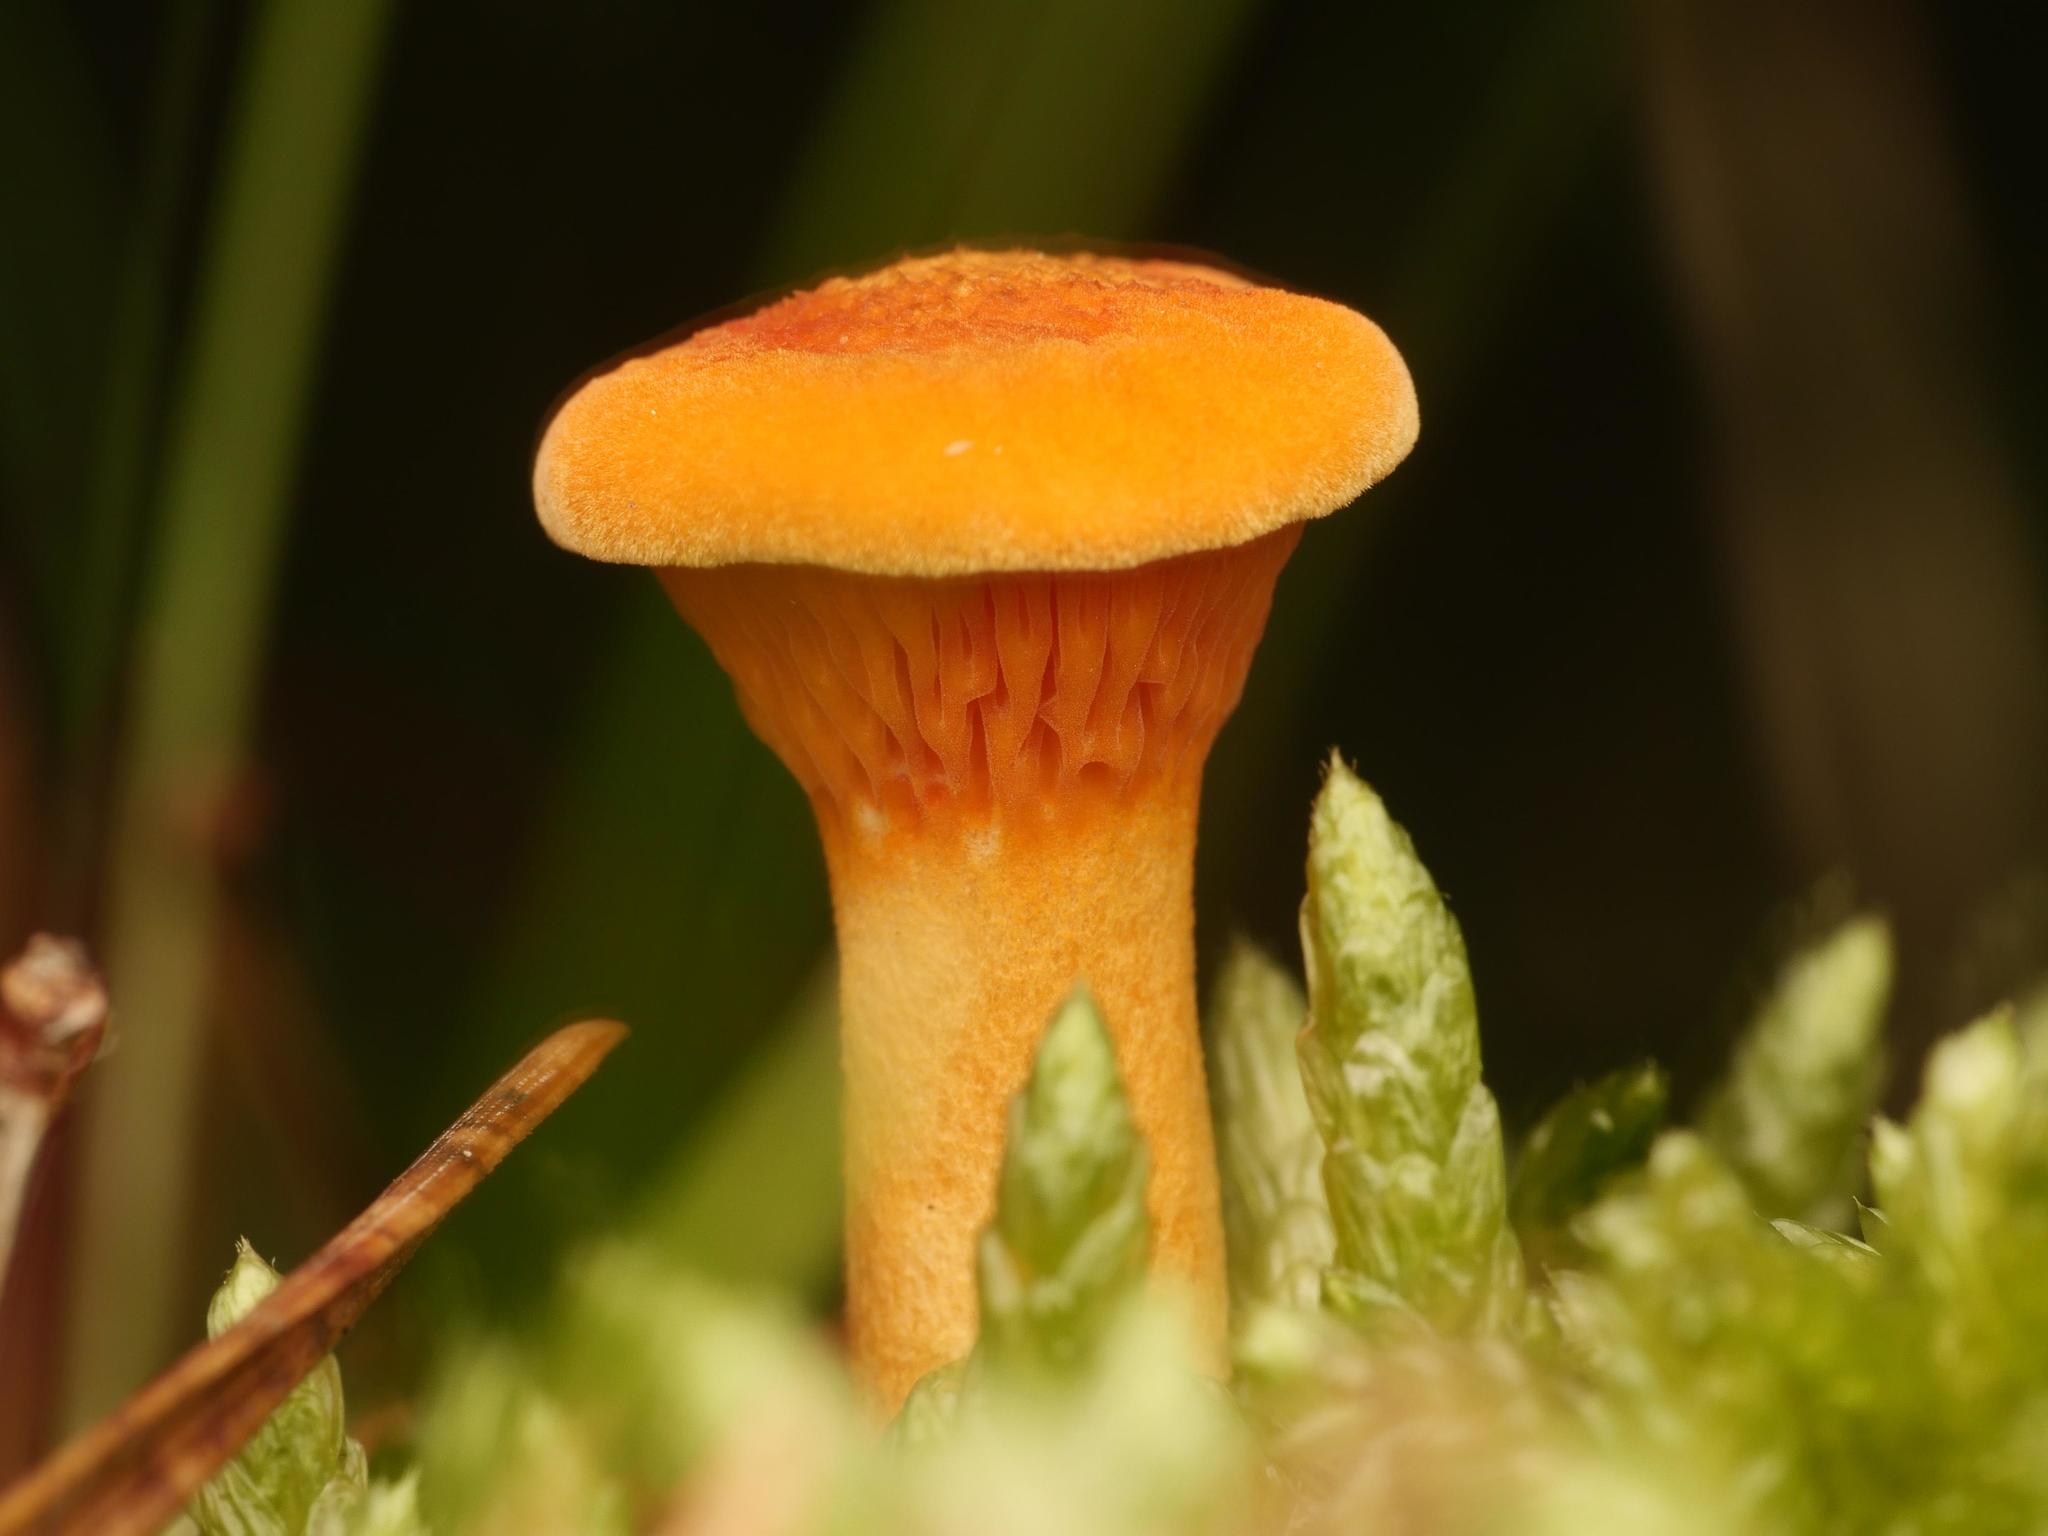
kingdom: Fungi
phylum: Basidiomycota
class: Agaricomycetes
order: Boletales
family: Hygrophoropsidaceae
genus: Hygrophoropsis
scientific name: Hygrophoropsis aurantiaca
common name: False chanterelle
